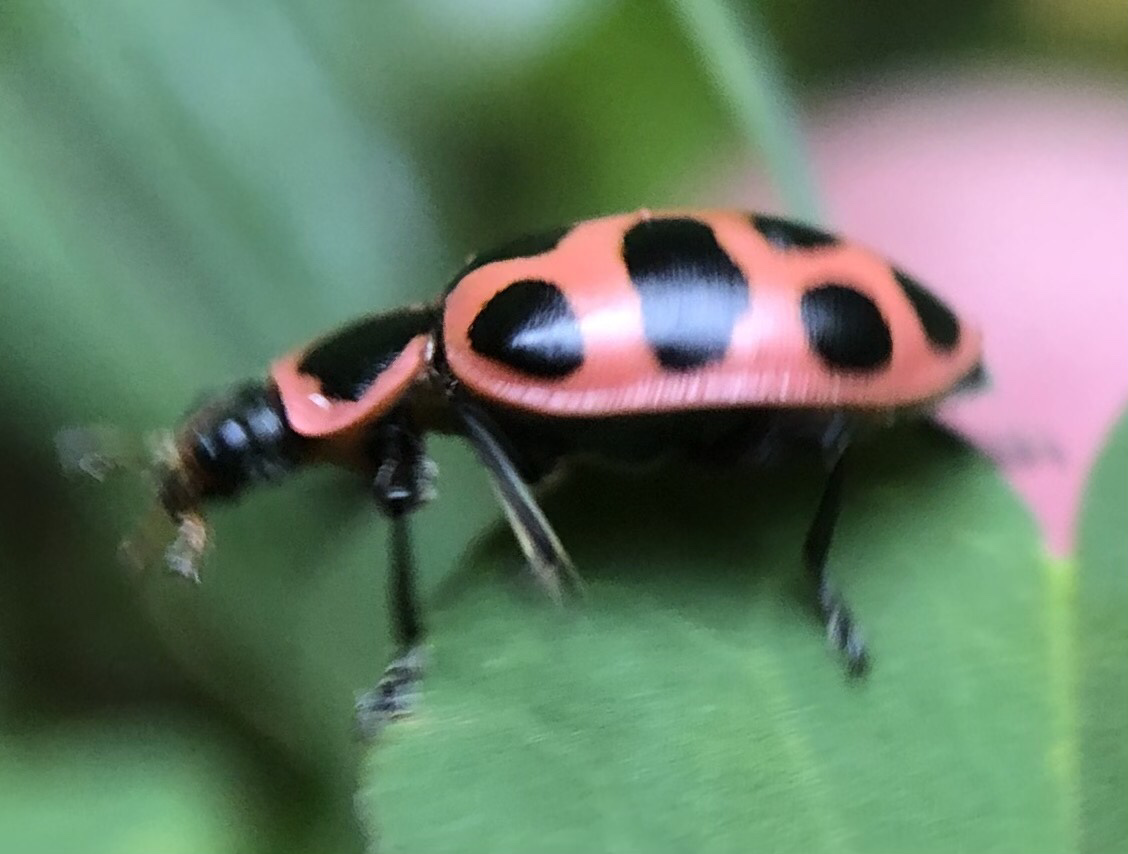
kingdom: Animalia
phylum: Arthropoda
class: Insecta
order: Coleoptera
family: Coccinellidae
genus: Coleomegilla
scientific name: Coleomegilla maculata
